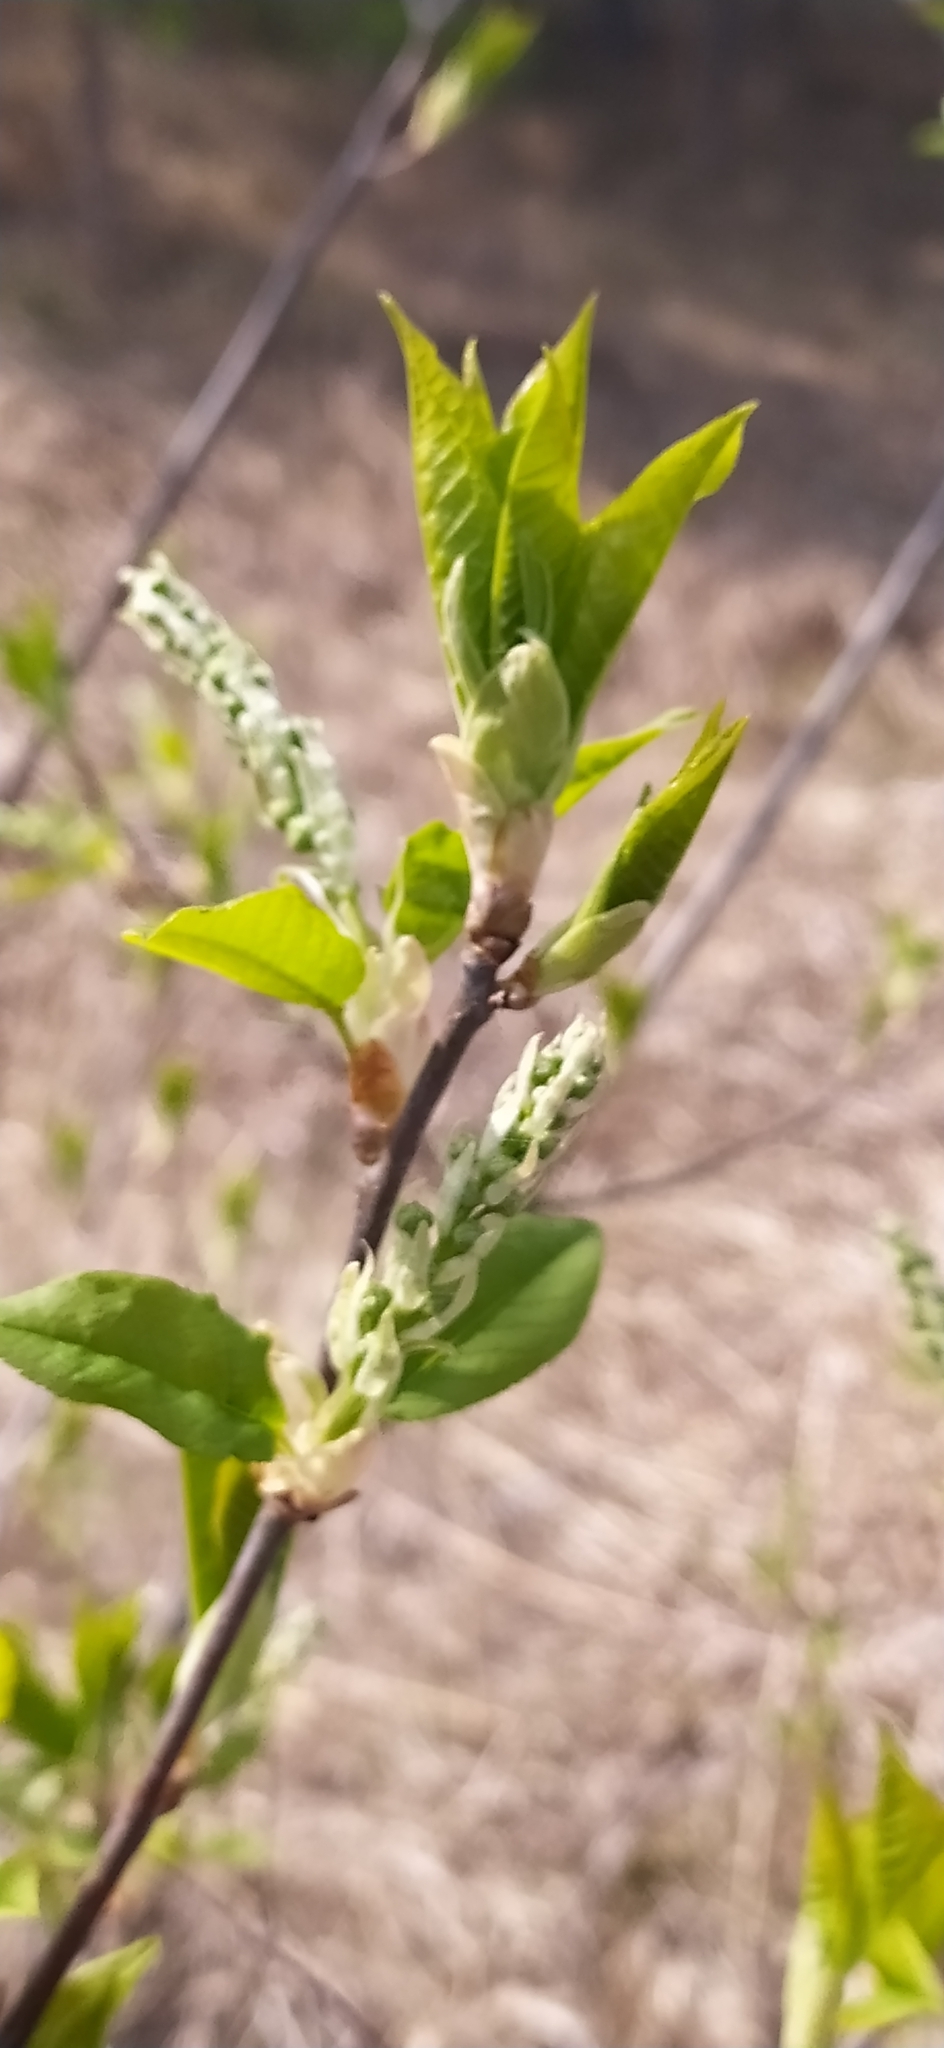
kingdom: Plantae
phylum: Tracheophyta
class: Magnoliopsida
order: Rosales
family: Rosaceae
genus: Prunus
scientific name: Prunus padus
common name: Bird cherry
